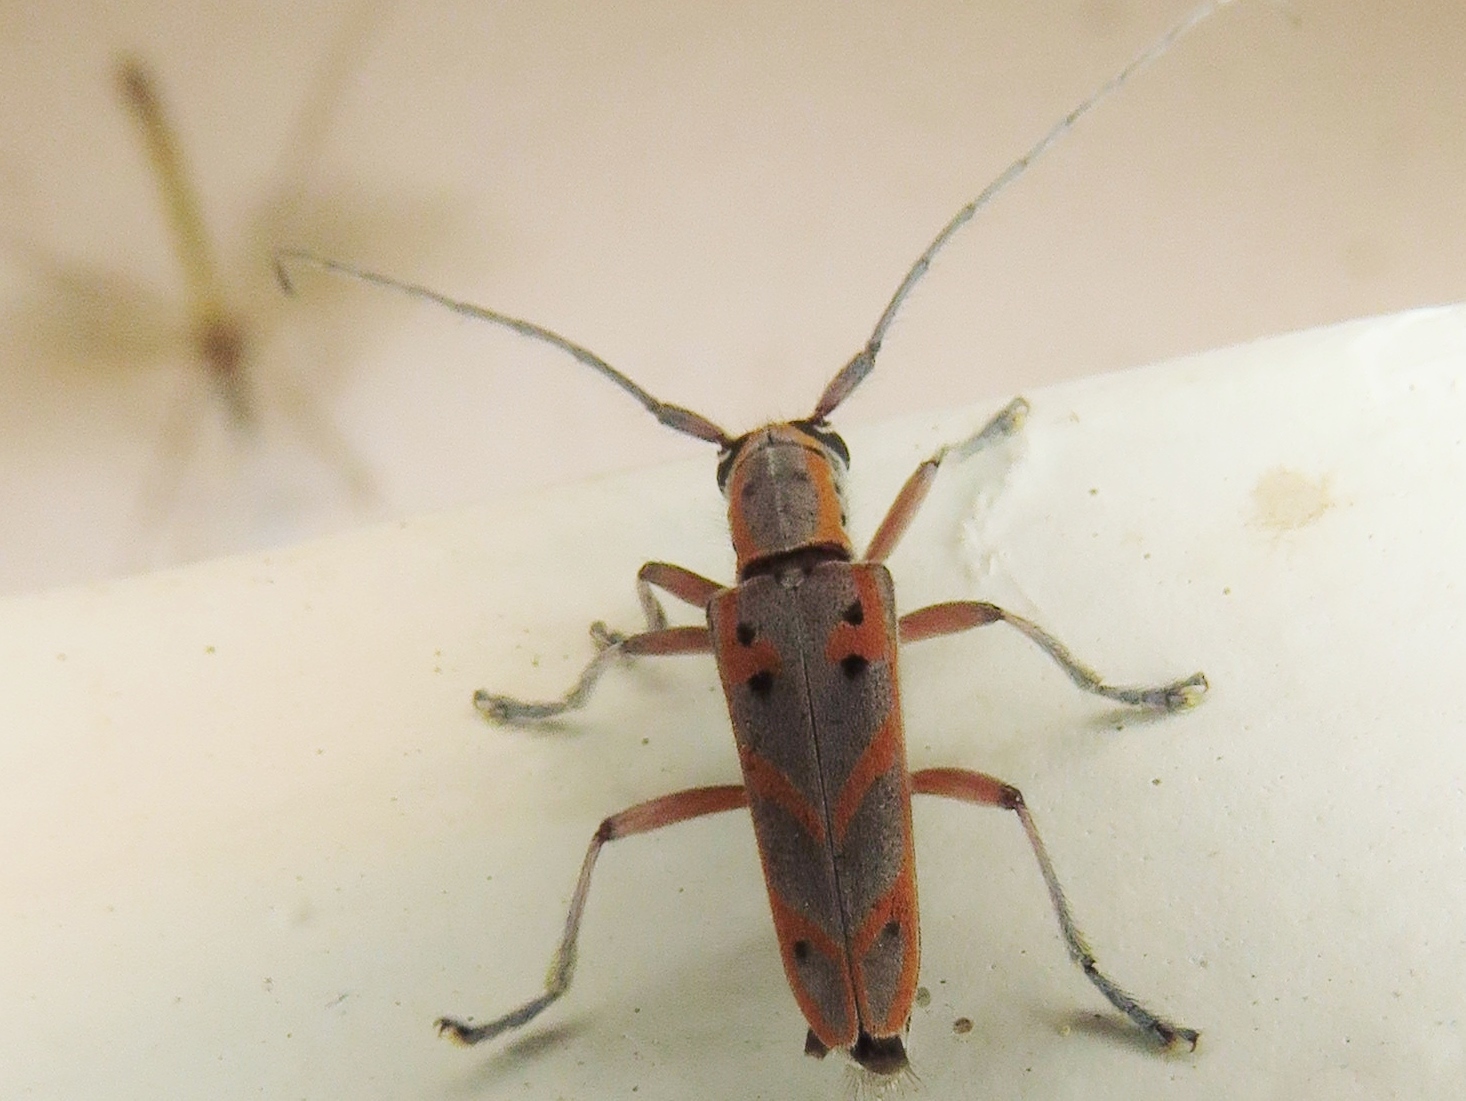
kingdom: Animalia
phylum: Arthropoda
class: Insecta
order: Coleoptera
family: Cerambycidae
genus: Saperda
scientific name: Saperda tridentata
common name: Elm borer
